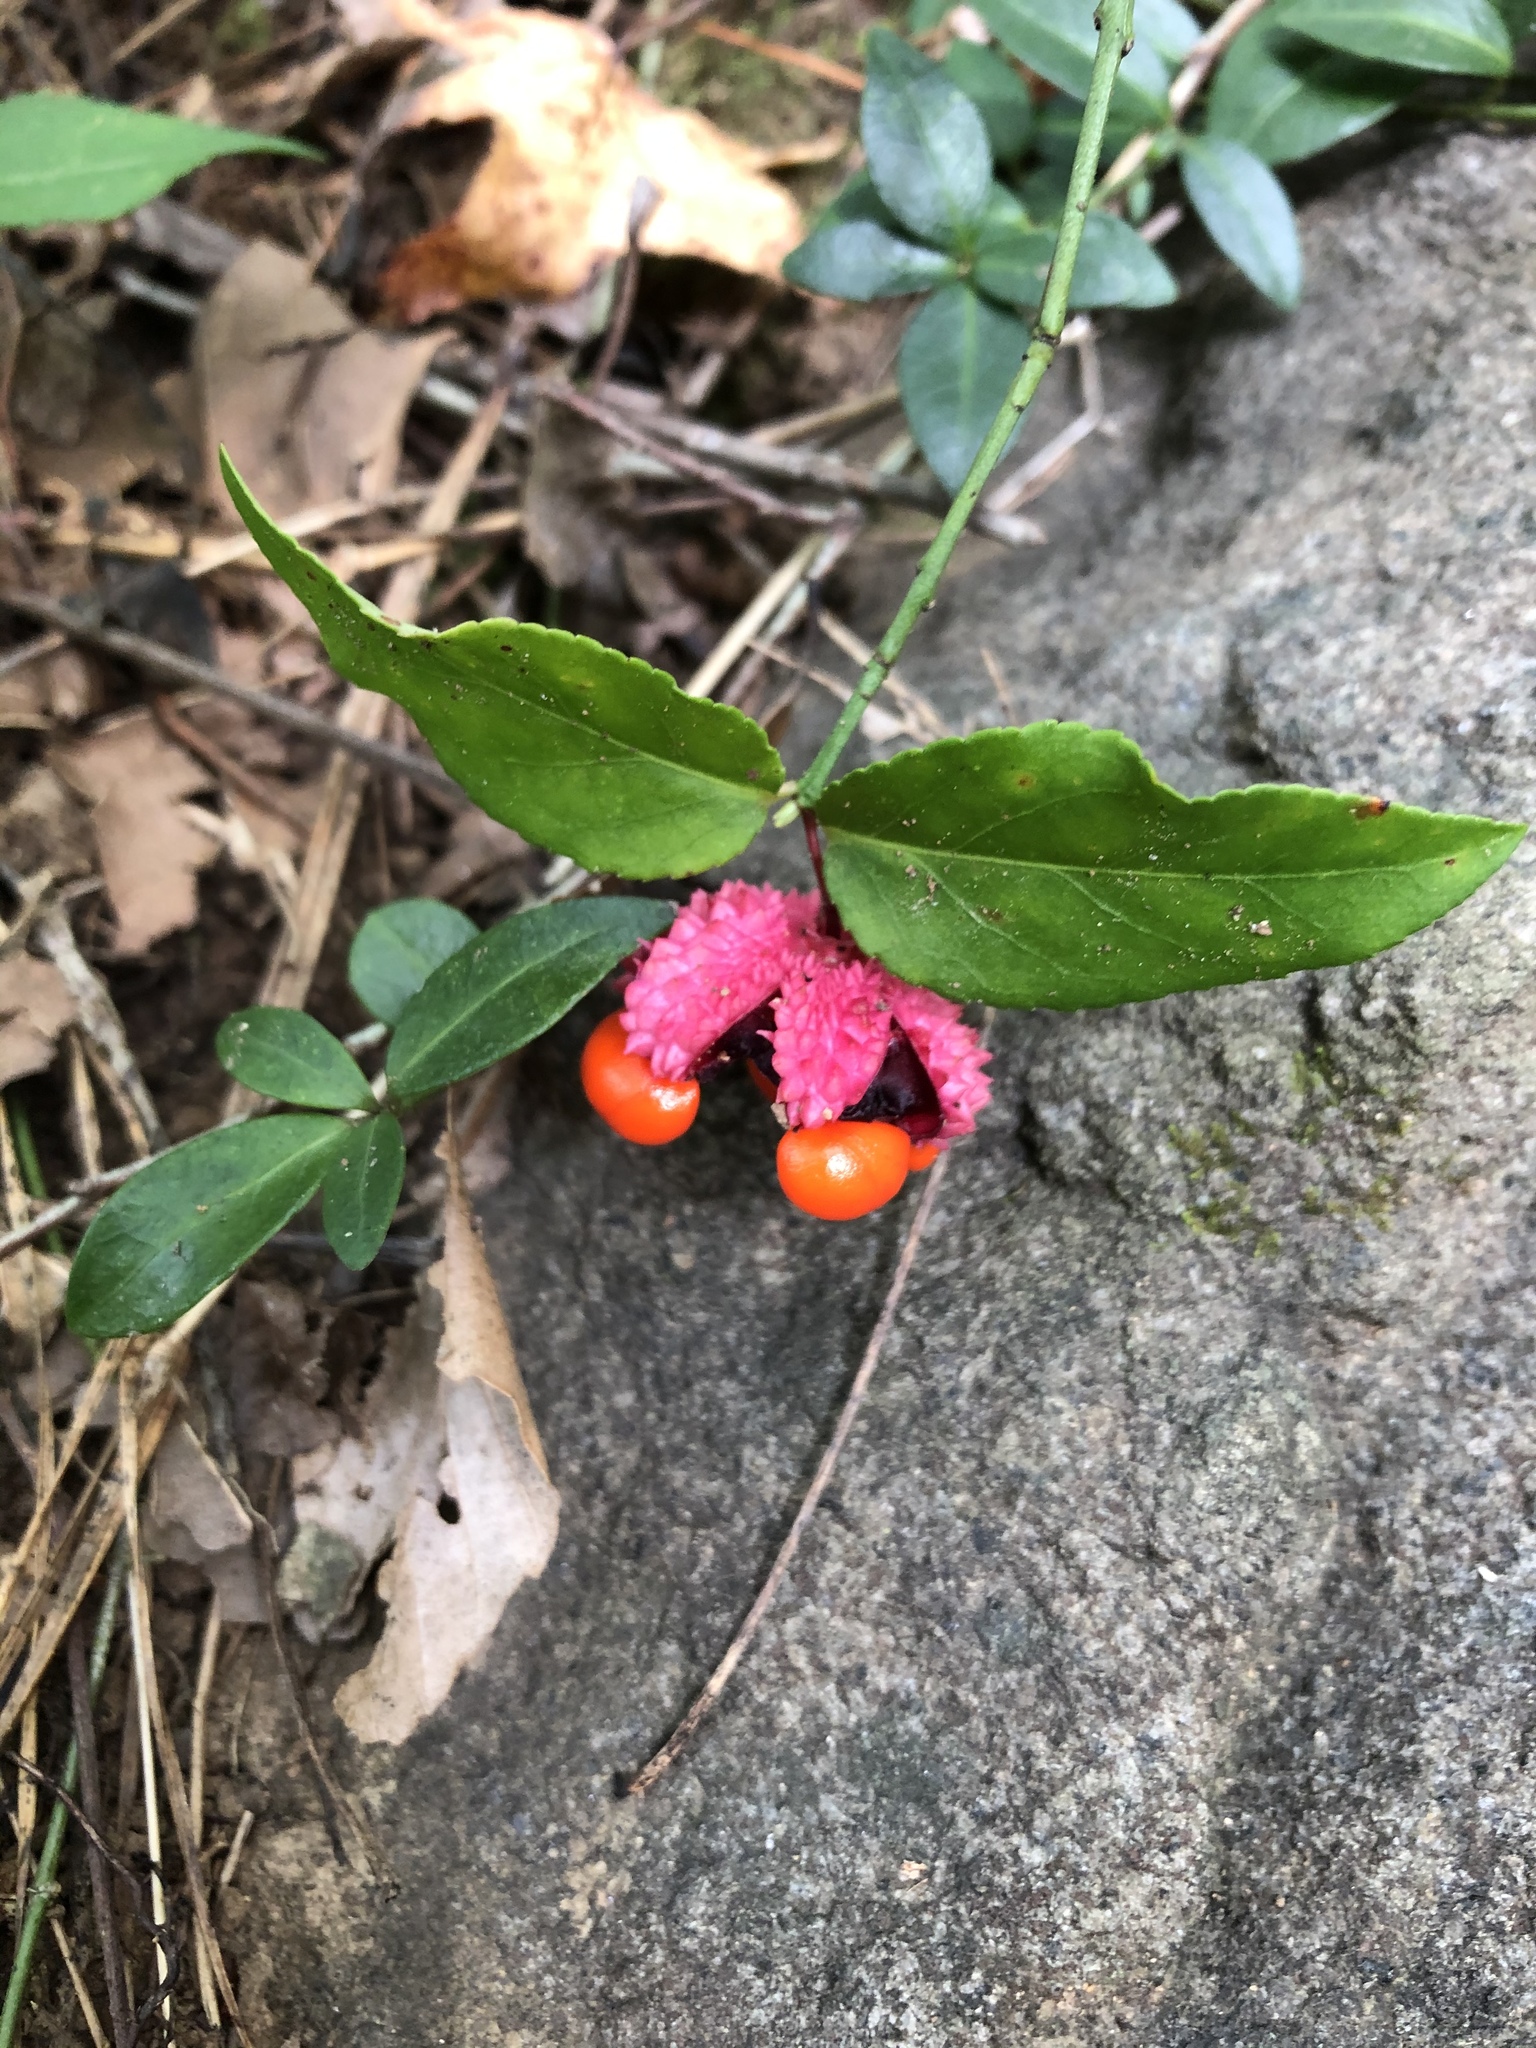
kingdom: Plantae
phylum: Tracheophyta
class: Magnoliopsida
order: Celastrales
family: Celastraceae
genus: Euonymus
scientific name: Euonymus americanus
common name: Bursting-heart
